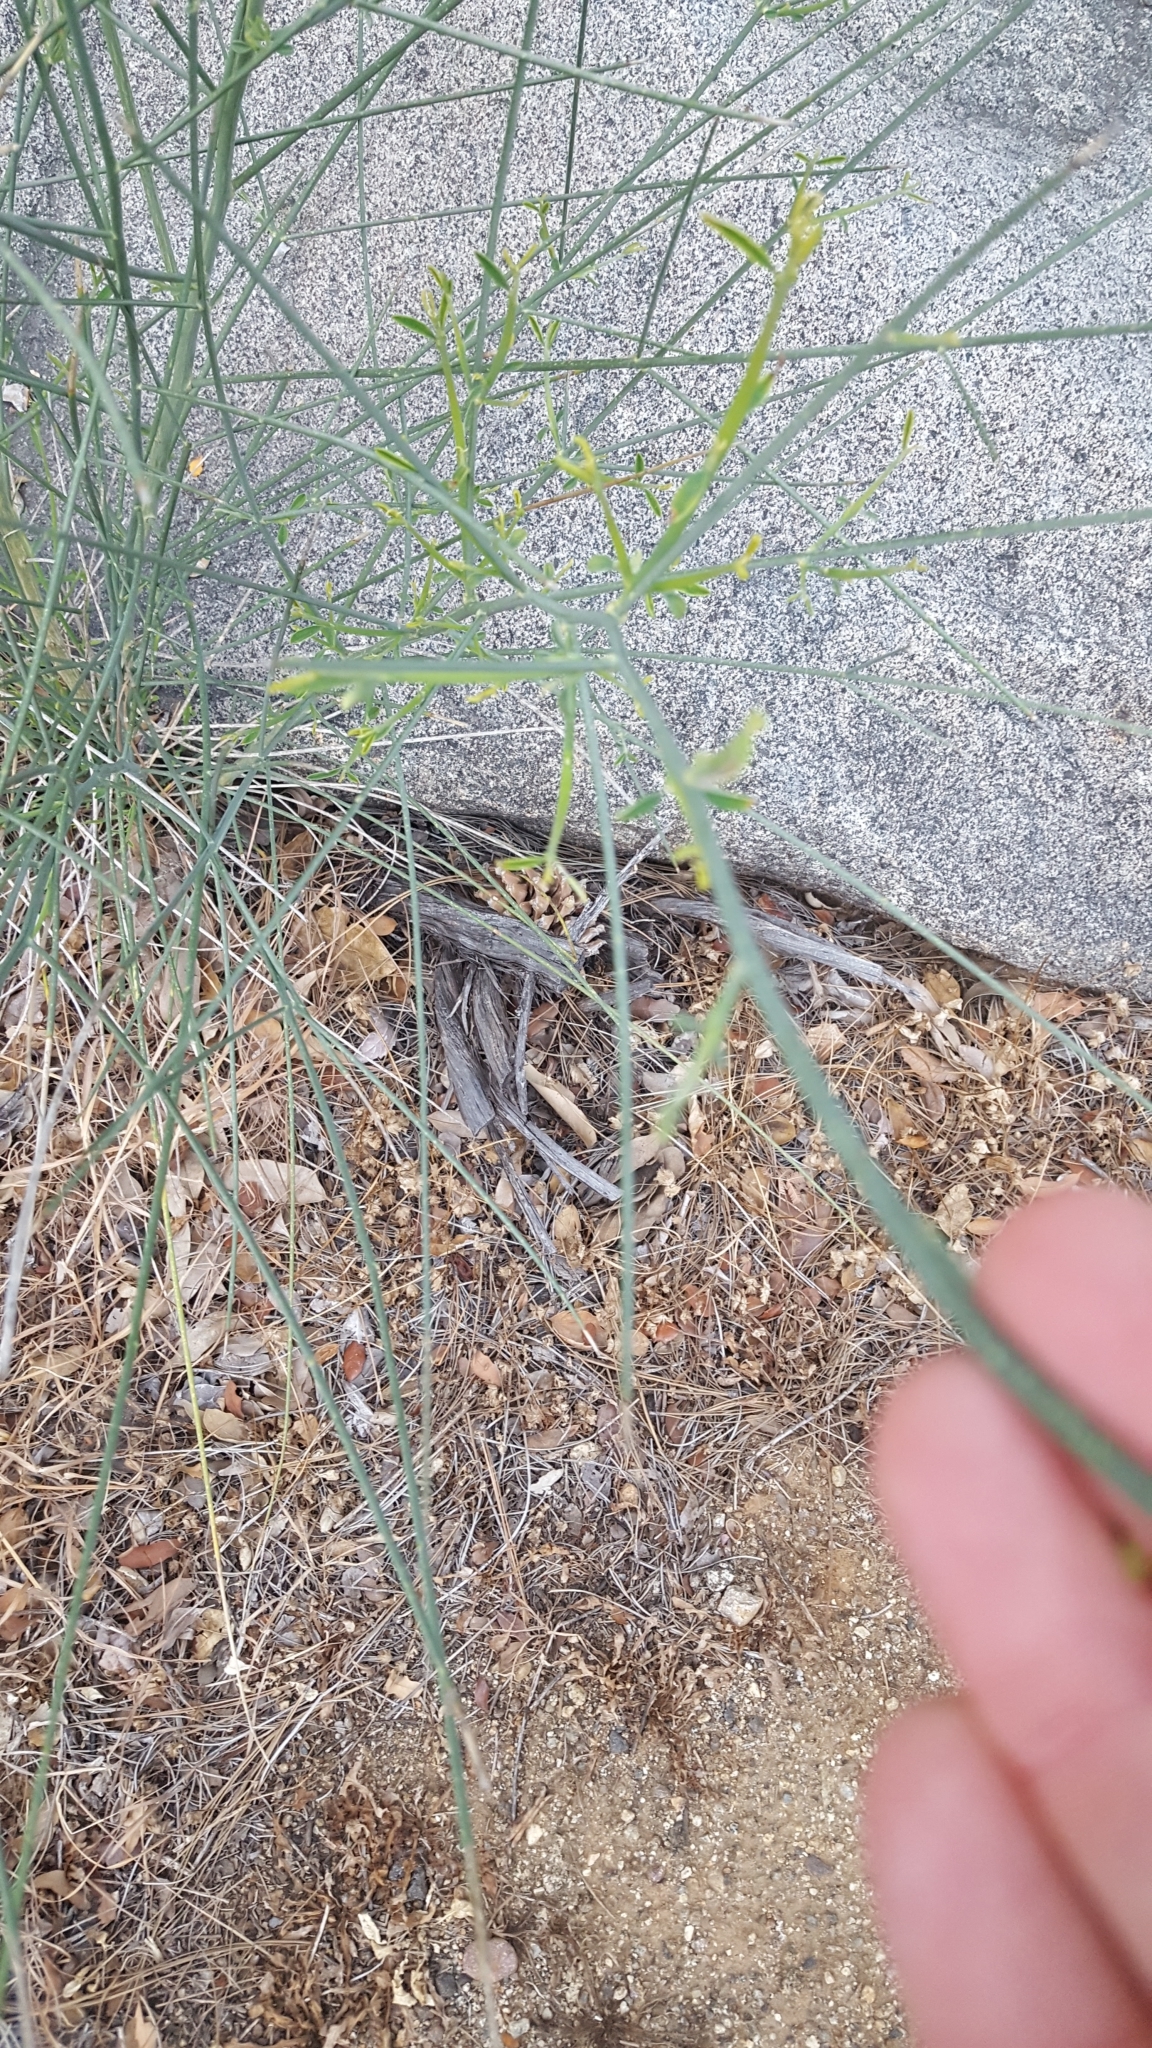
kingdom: Plantae
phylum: Tracheophyta
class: Magnoliopsida
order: Fabales
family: Fabaceae
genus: Spartium
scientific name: Spartium junceum
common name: Spanish broom
